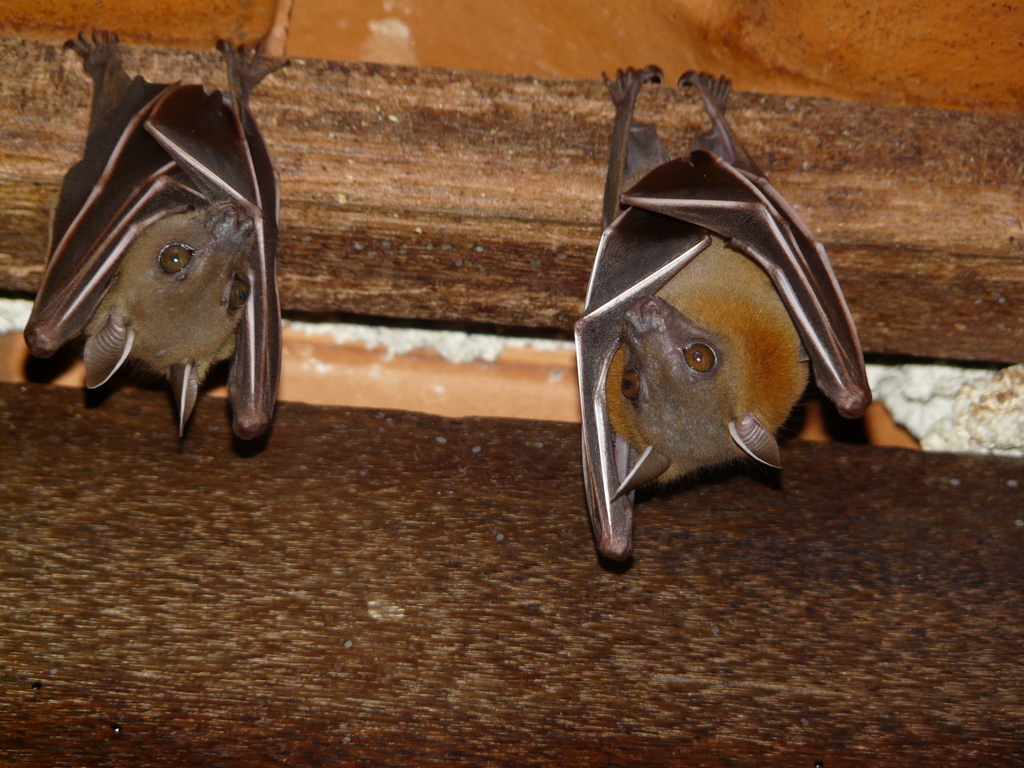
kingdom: Animalia
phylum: Chordata
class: Mammalia
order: Chiroptera
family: Pteropodidae
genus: Cynopterus
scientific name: Cynopterus brachyotis
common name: Lesser short-nosed fruit bat
